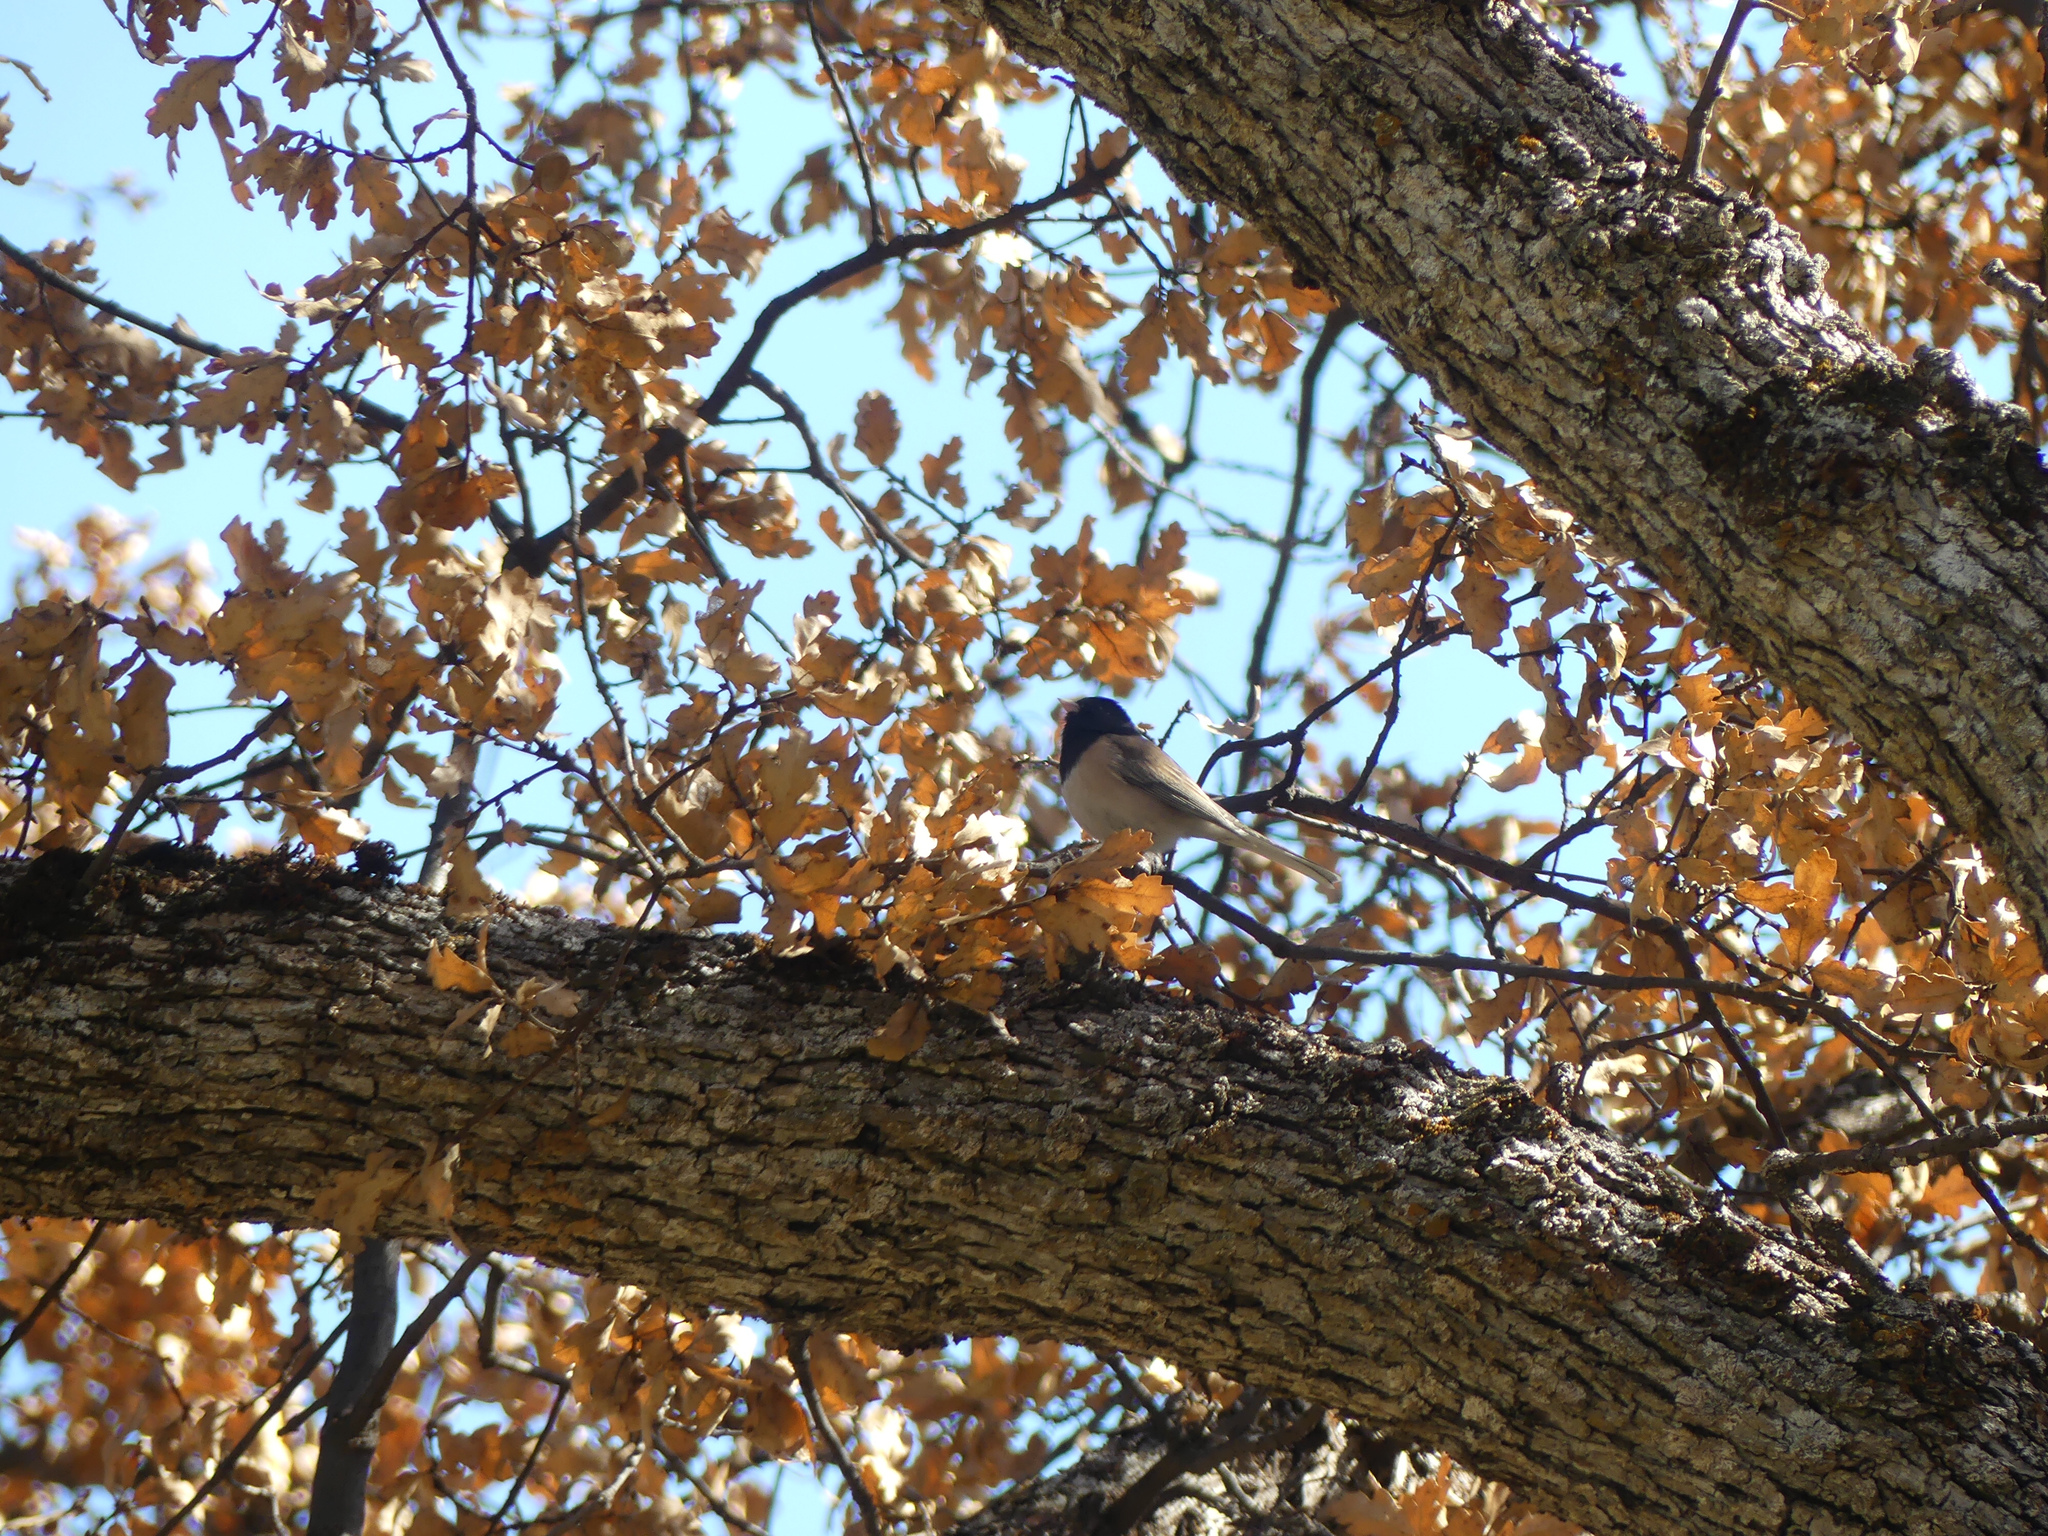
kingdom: Animalia
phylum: Chordata
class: Aves
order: Passeriformes
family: Passerellidae
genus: Junco
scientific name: Junco hyemalis
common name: Dark-eyed junco
